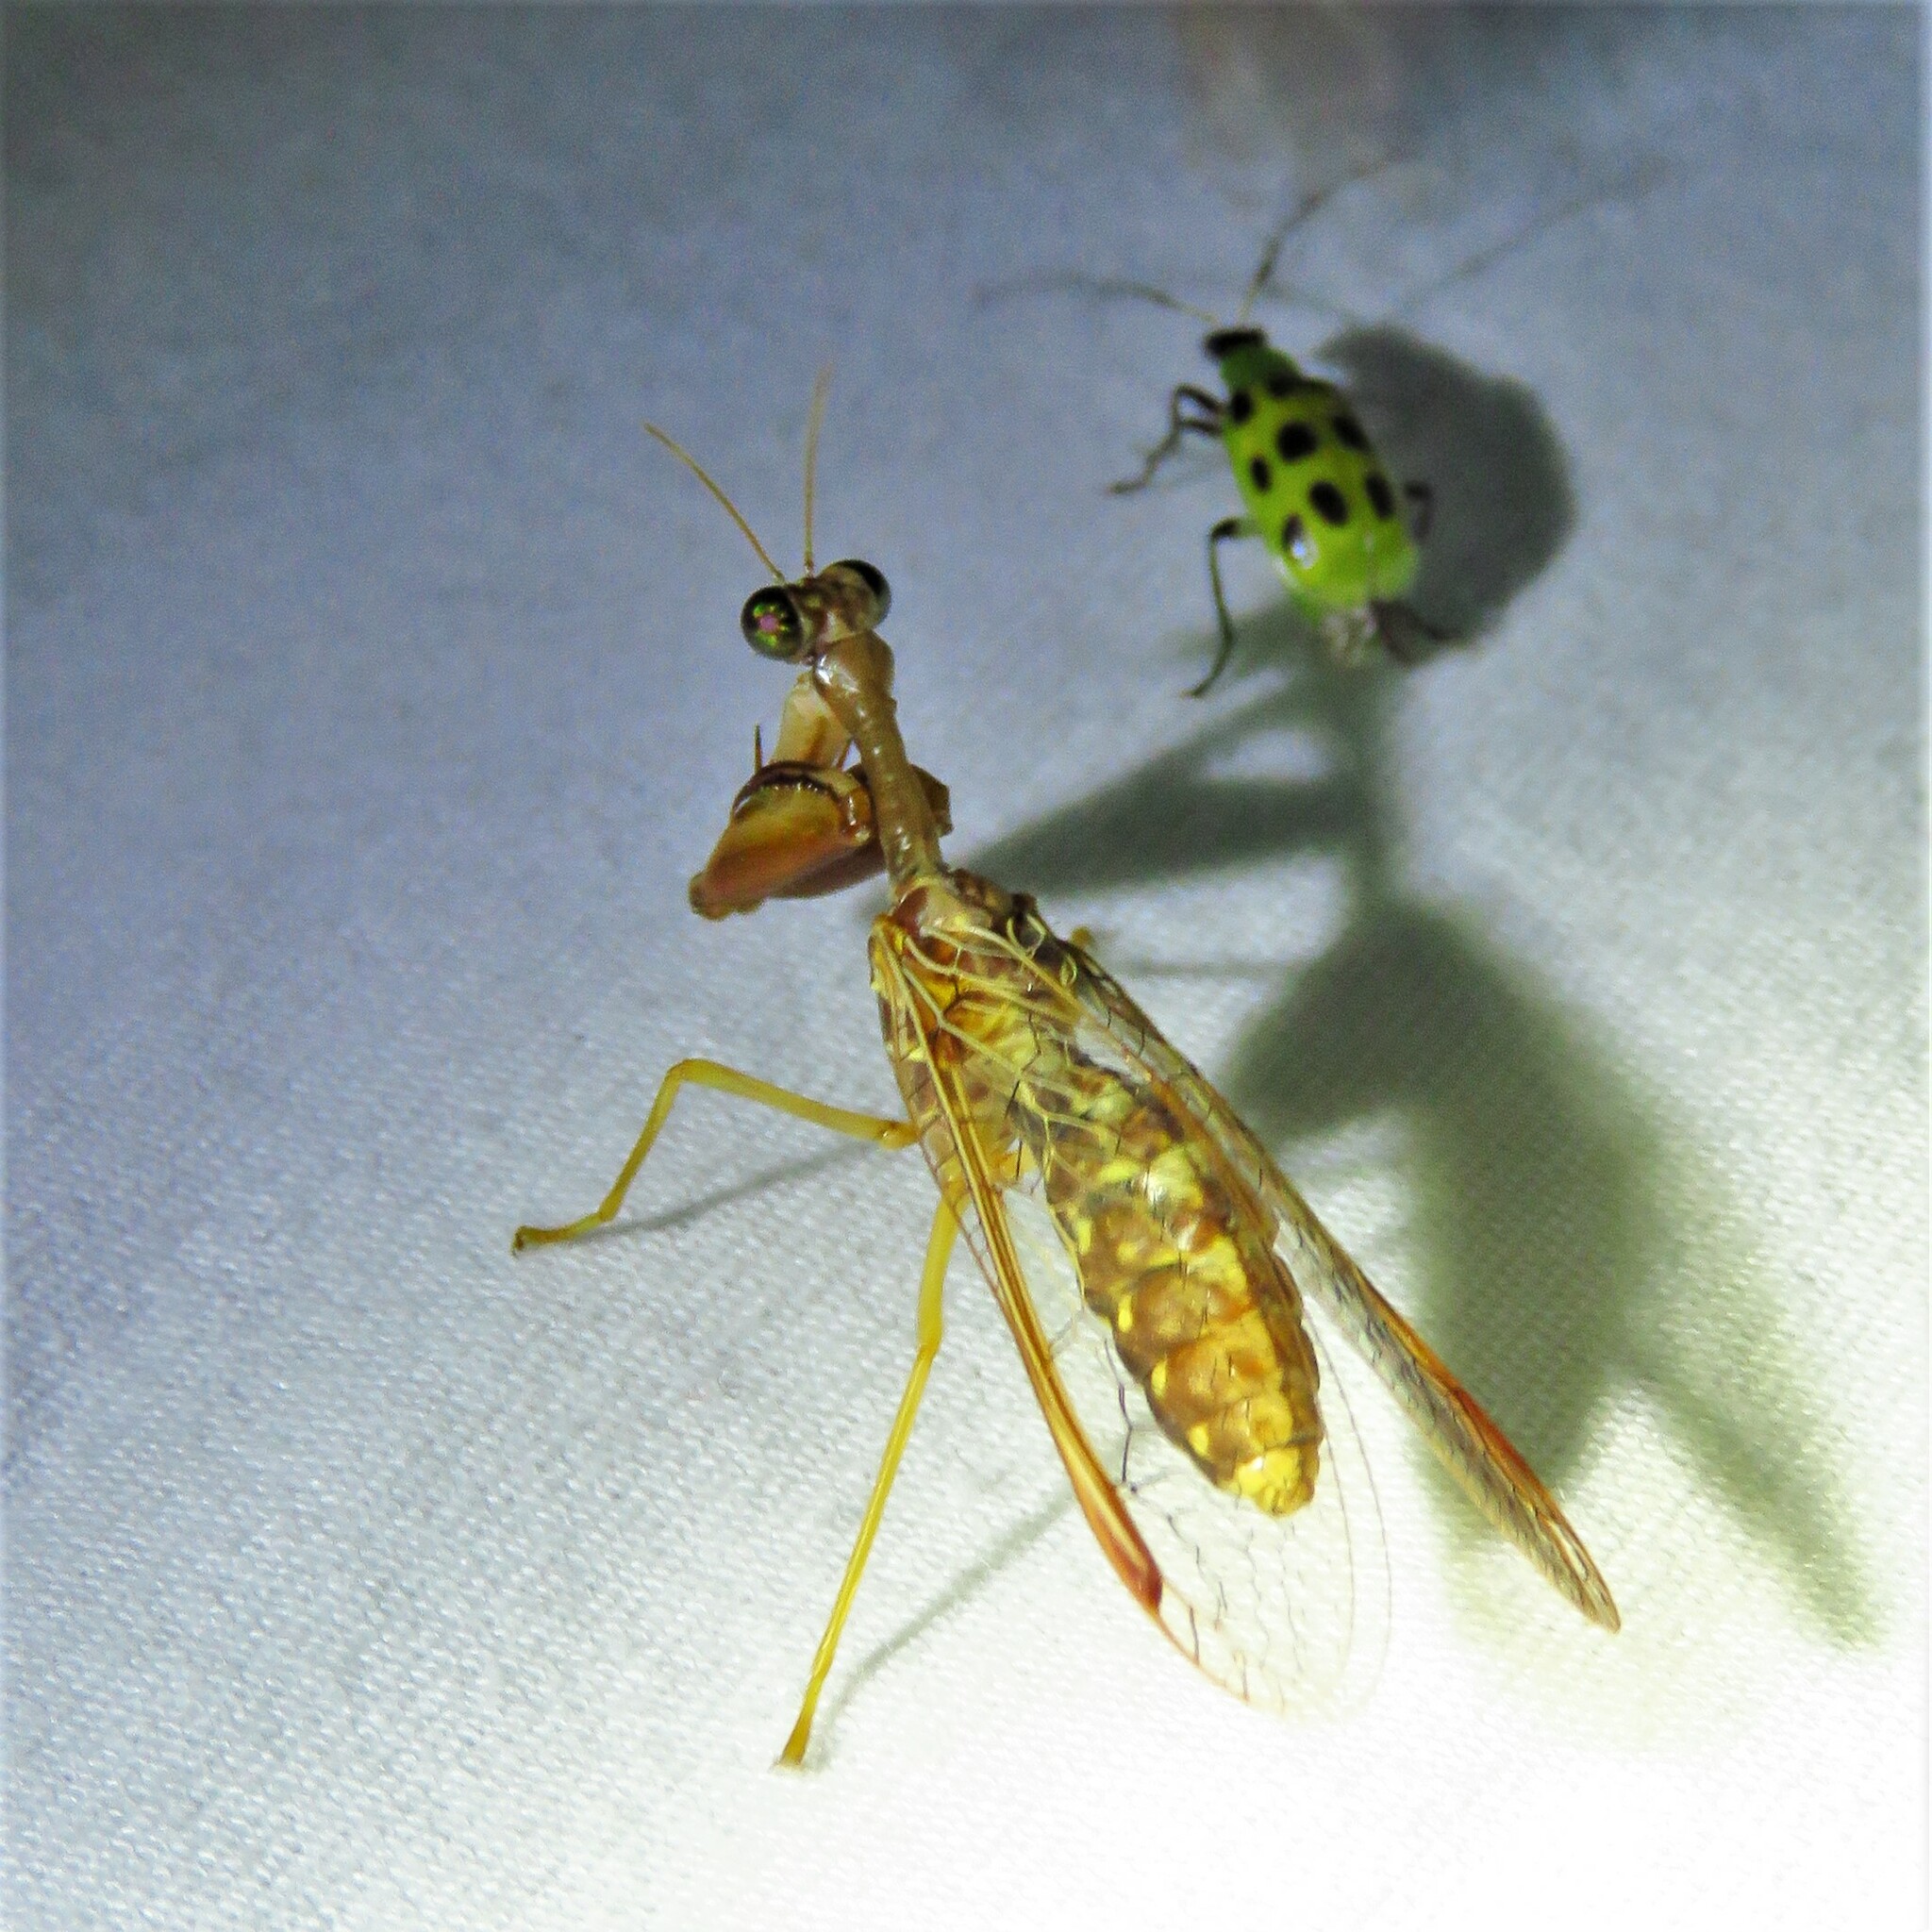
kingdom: Animalia
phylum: Arthropoda
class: Insecta
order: Neuroptera
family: Mantispidae
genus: Dicromantispa
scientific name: Dicromantispa sayi
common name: Say's mantidfly
